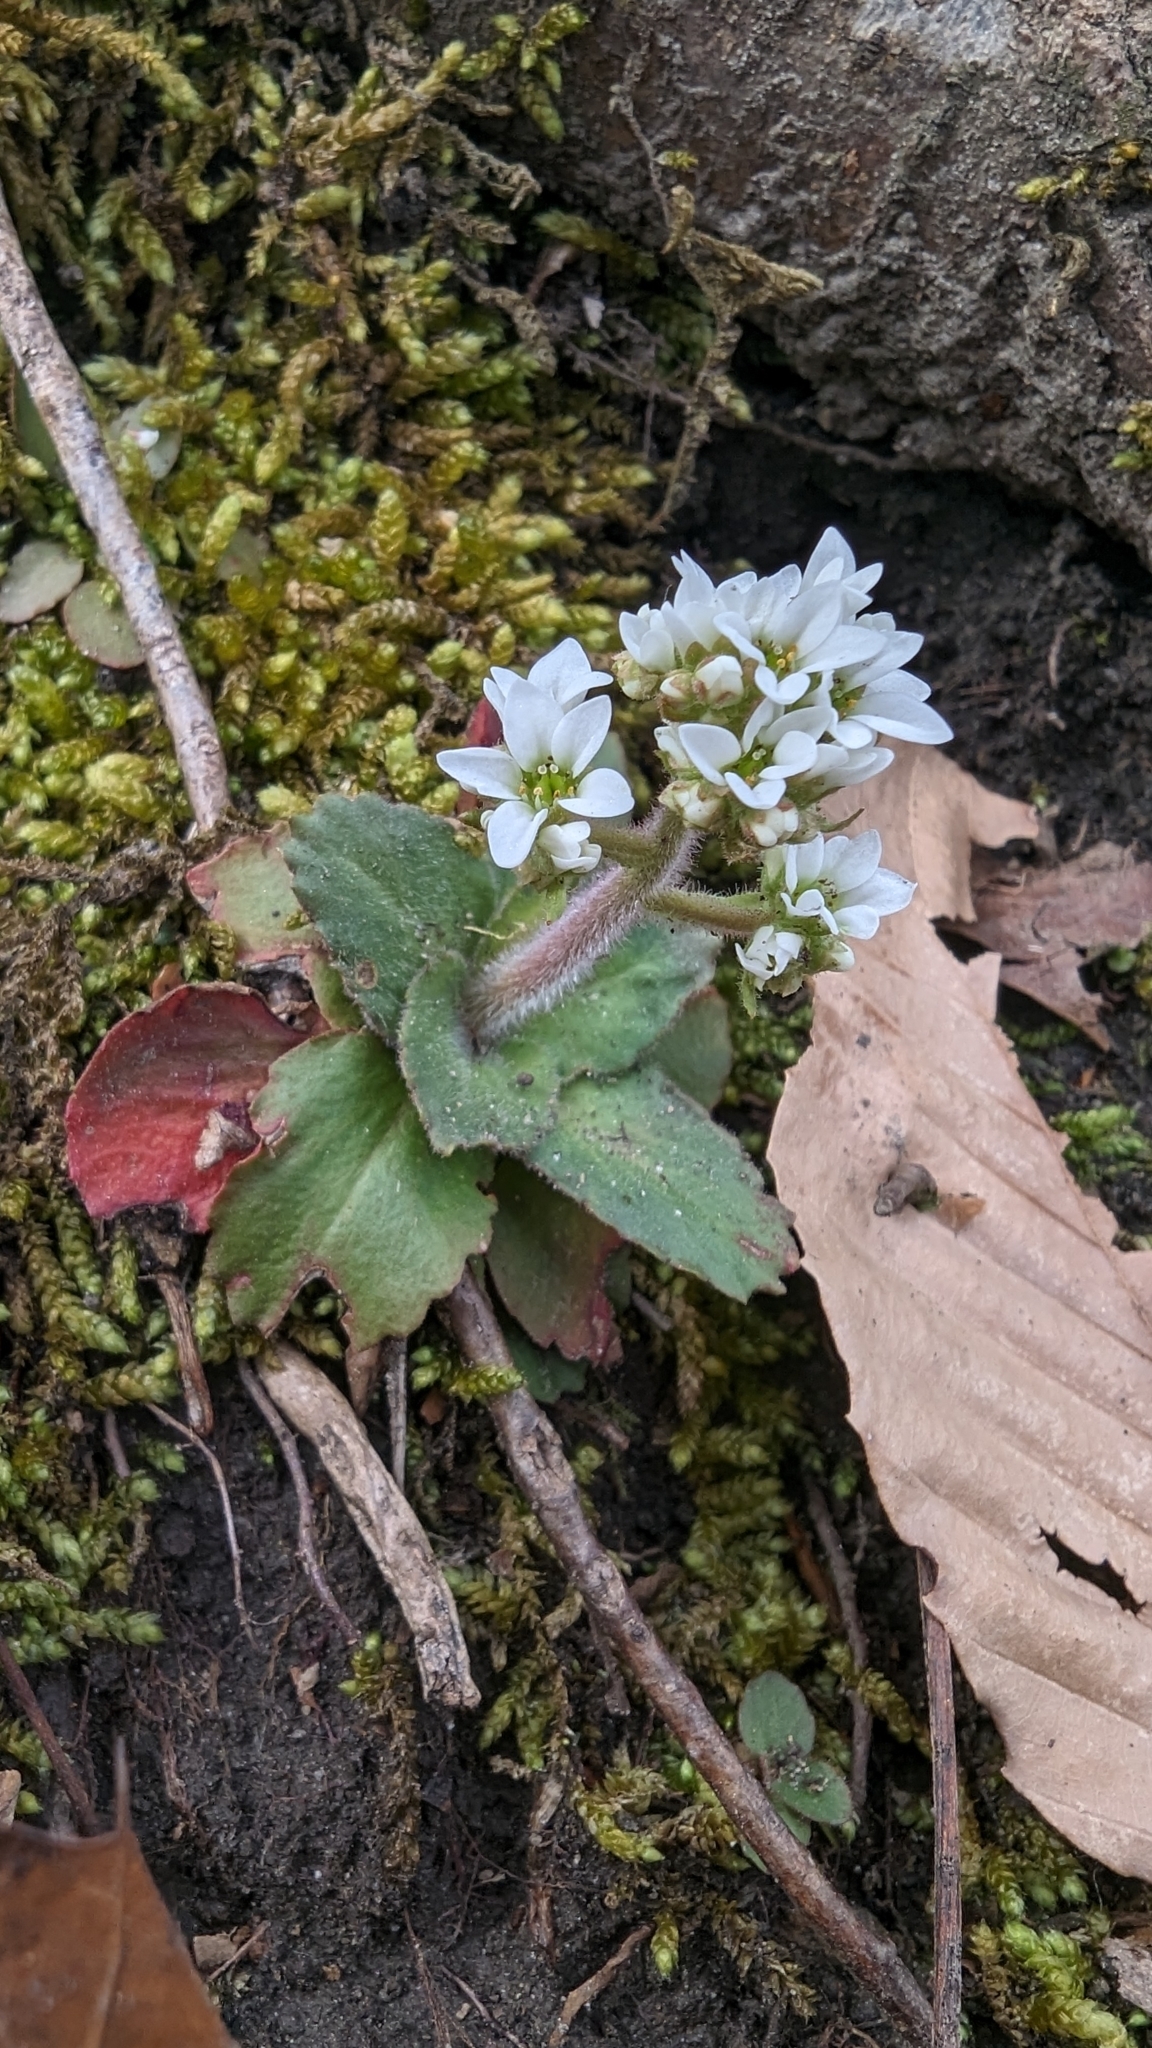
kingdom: Plantae
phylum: Tracheophyta
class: Magnoliopsida
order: Saxifragales
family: Saxifragaceae
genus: Micranthes
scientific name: Micranthes virginiensis
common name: Early saxifrage
